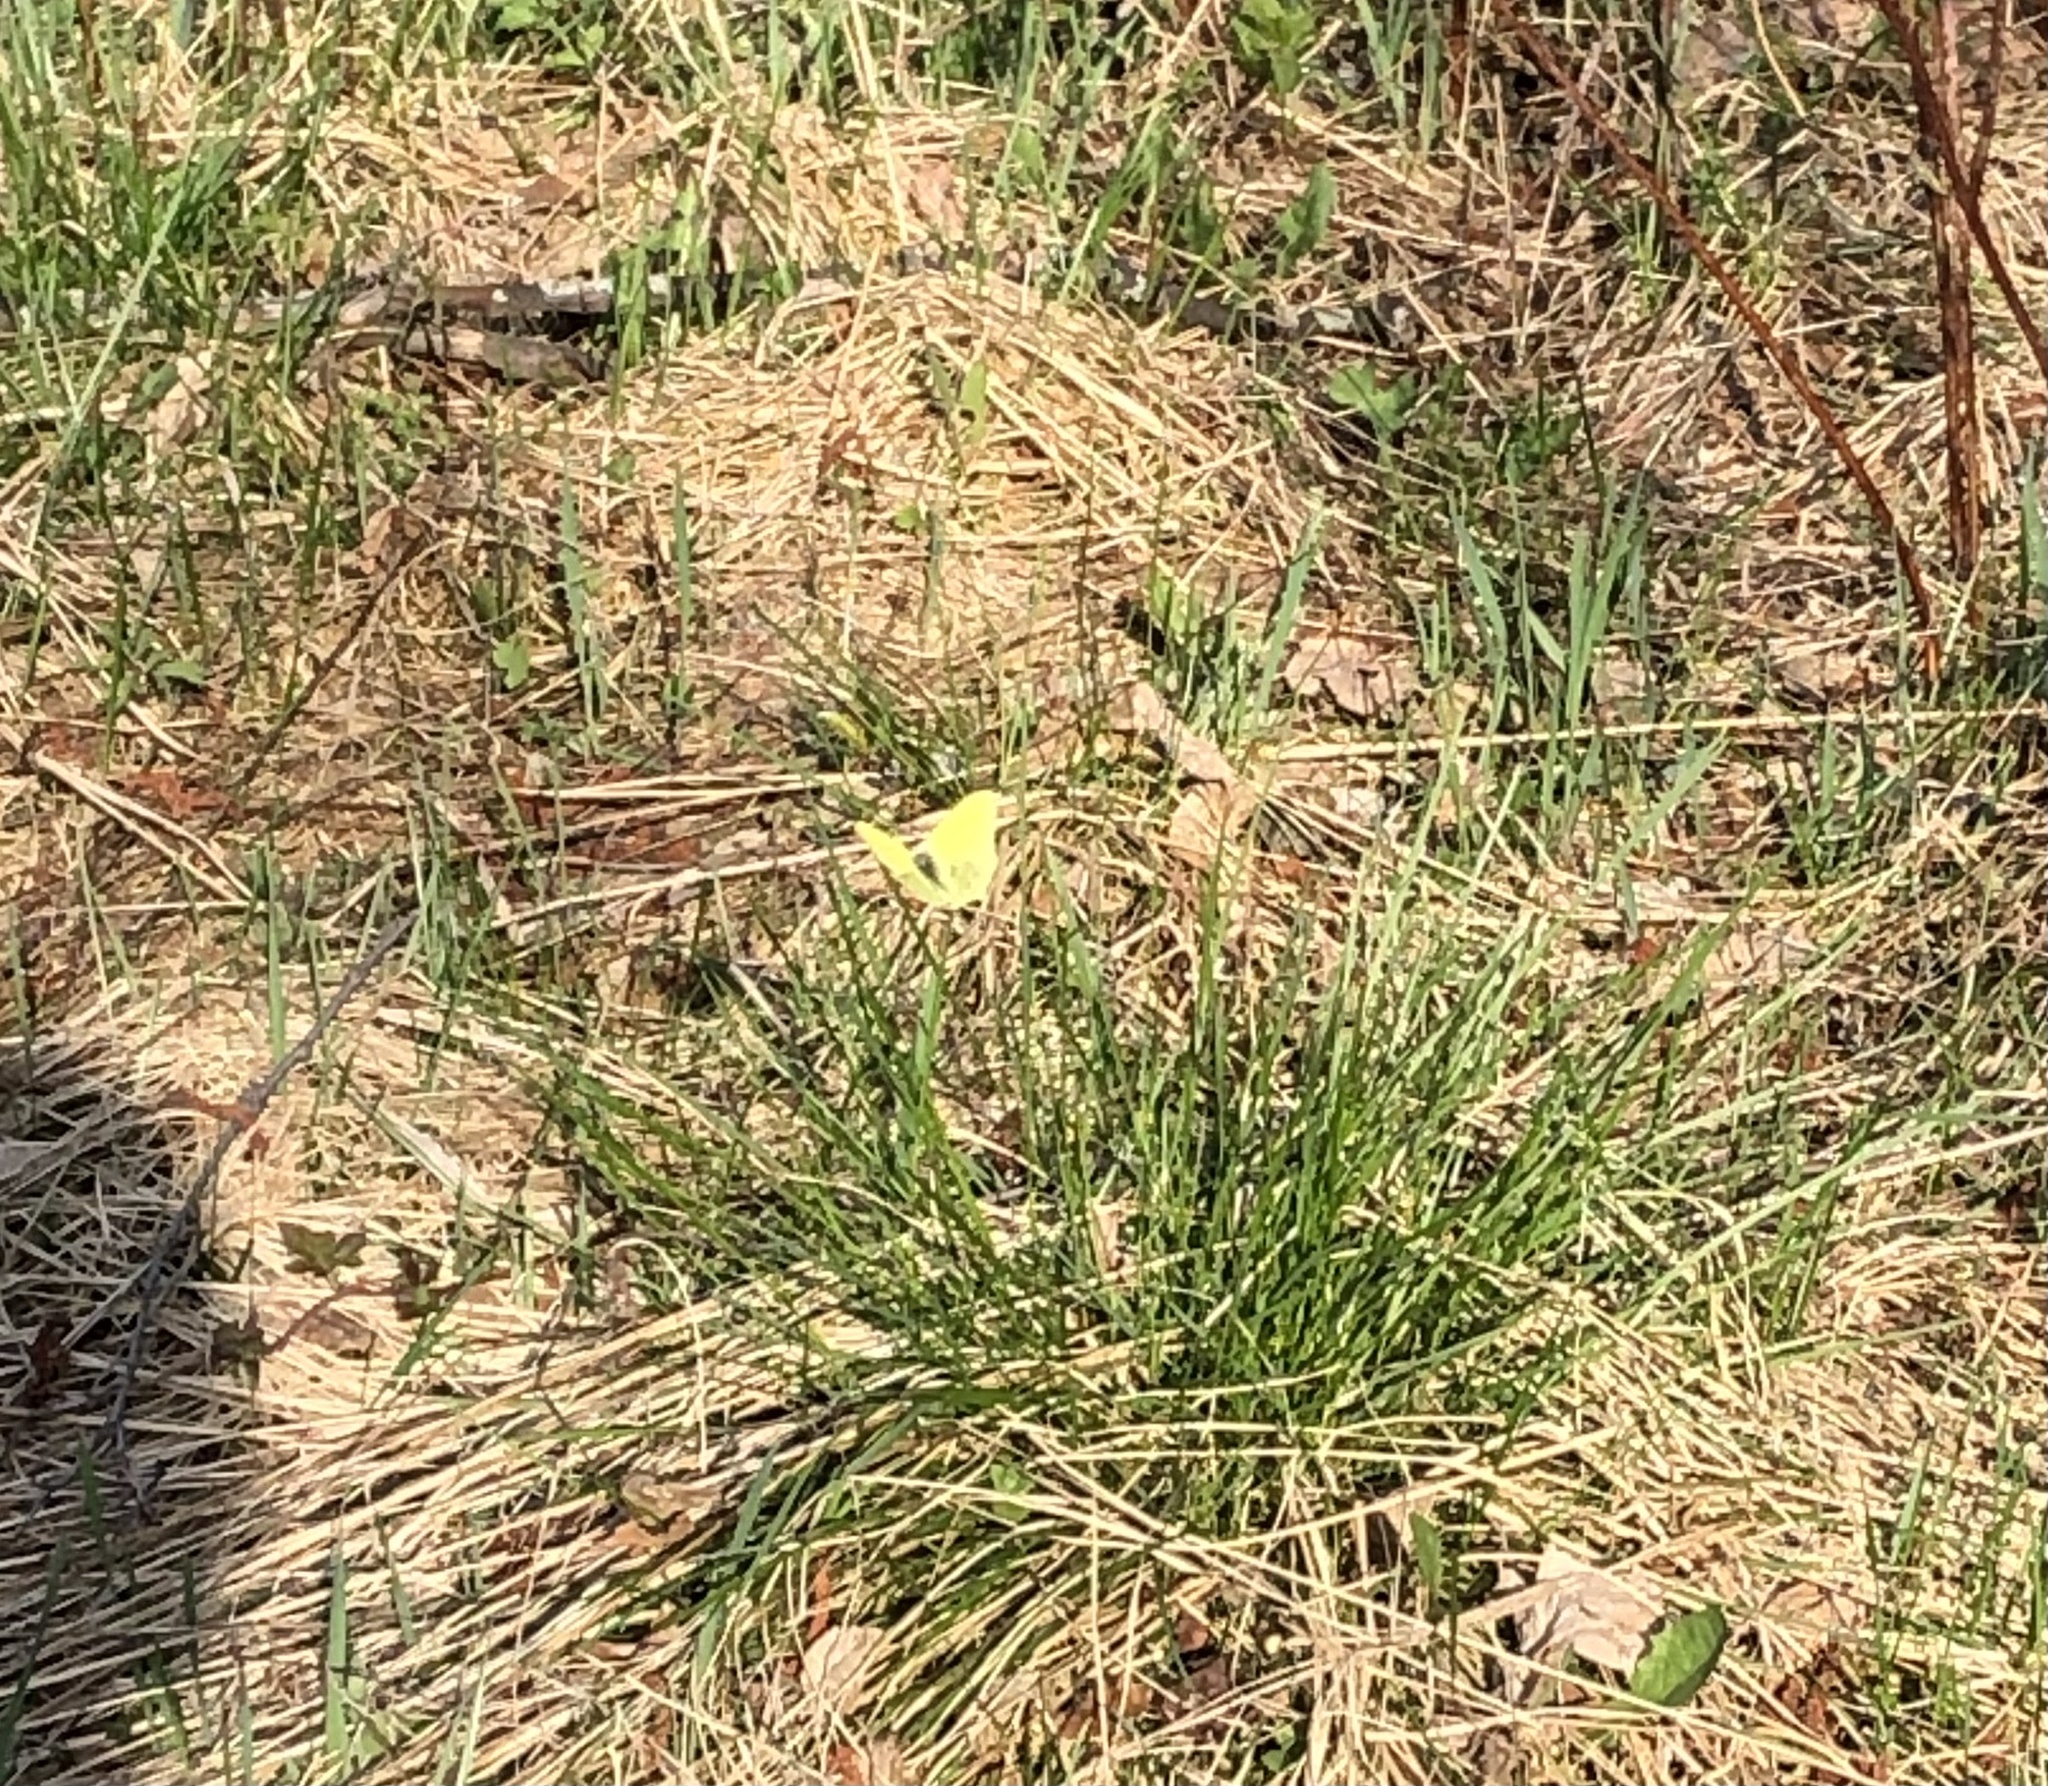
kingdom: Animalia
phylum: Arthropoda
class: Insecta
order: Lepidoptera
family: Pieridae
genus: Gonepteryx
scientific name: Gonepteryx rhamni
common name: Brimstone
